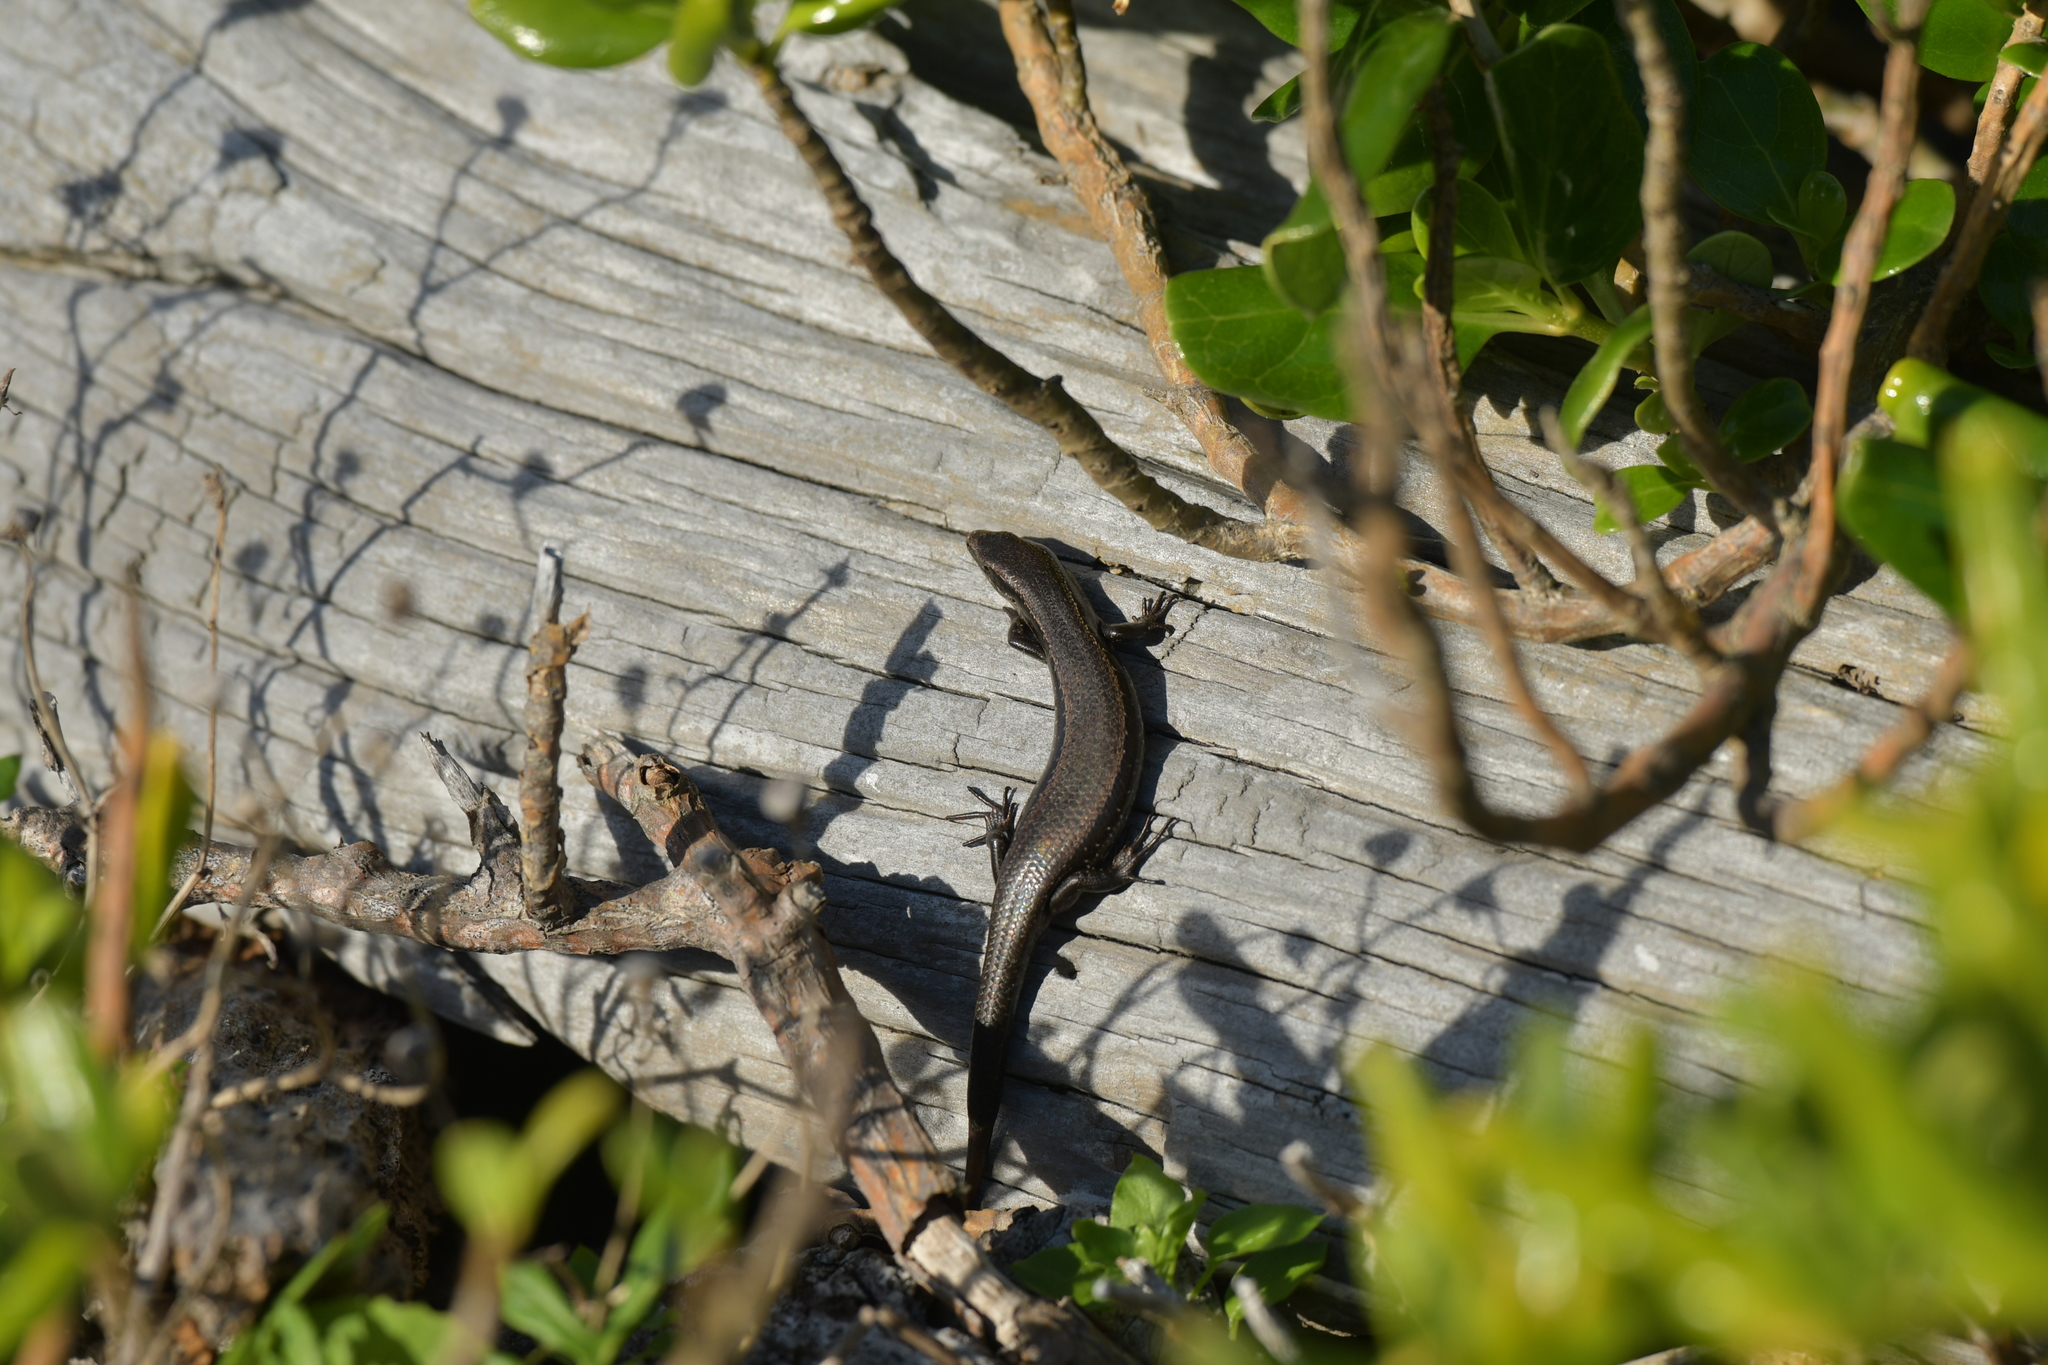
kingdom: Animalia
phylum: Chordata
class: Squamata
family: Scincidae
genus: Oligosoma
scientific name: Oligosoma polychroma
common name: Common new zealand skink
